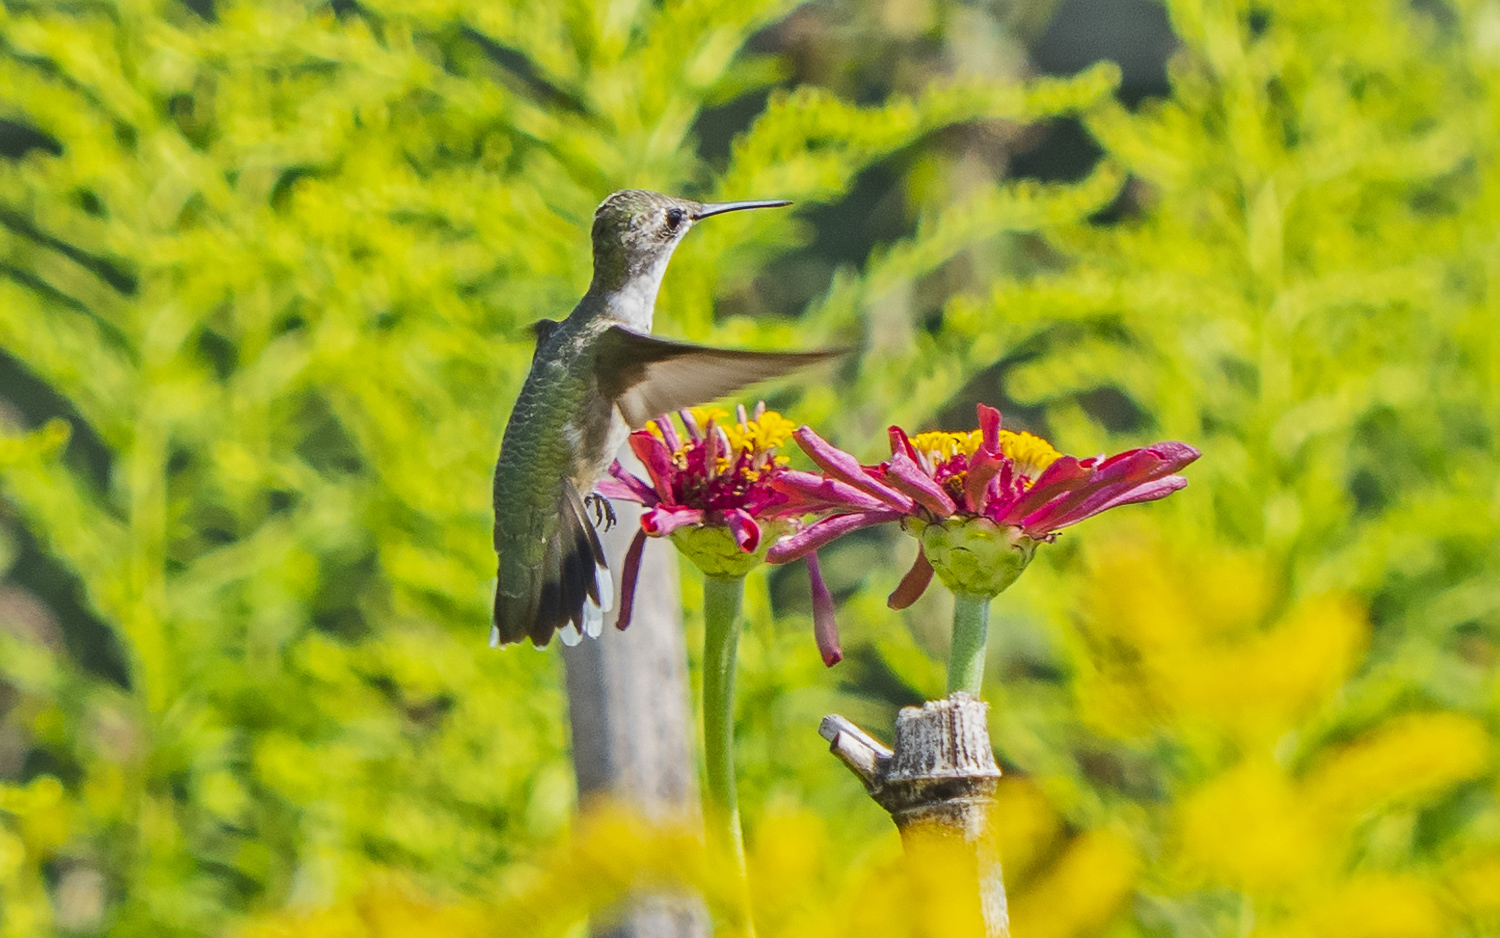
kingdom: Animalia
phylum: Chordata
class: Aves
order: Apodiformes
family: Trochilidae
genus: Archilochus
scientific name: Archilochus colubris
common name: Ruby-throated hummingbird
